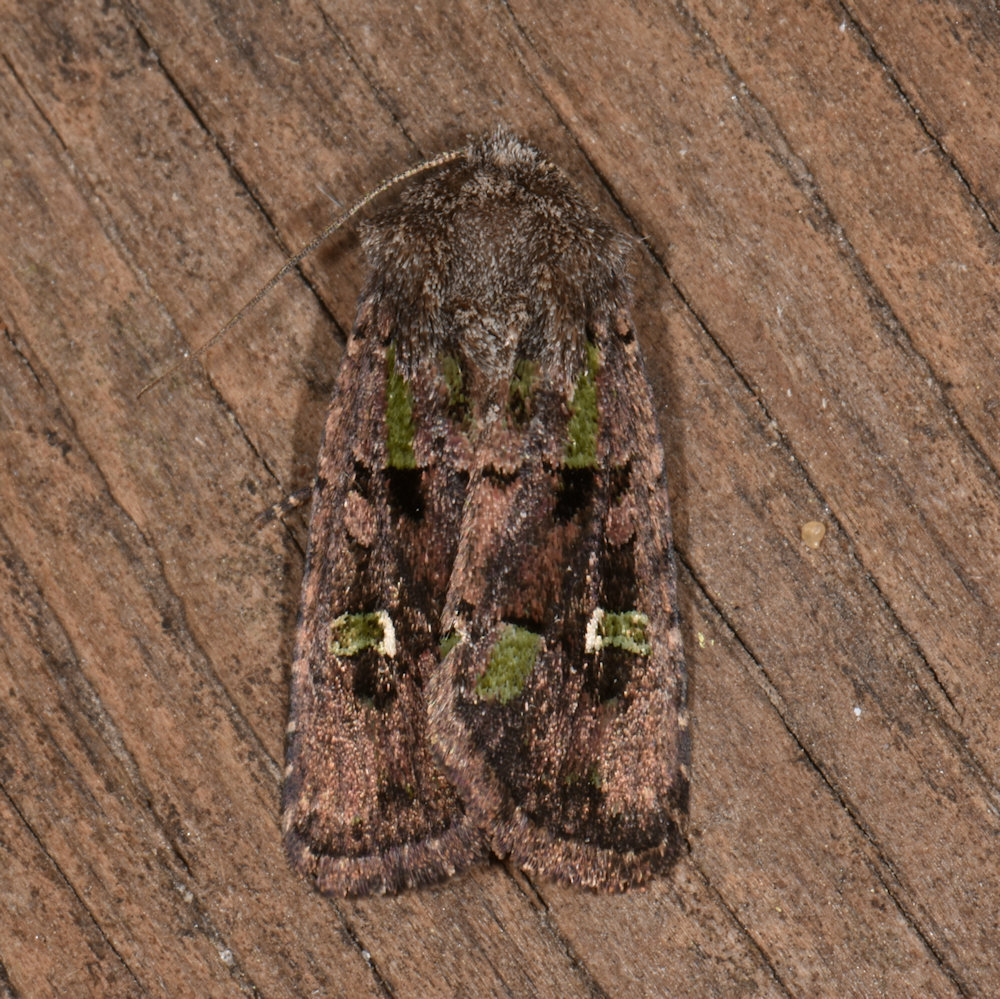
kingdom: Animalia
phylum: Arthropoda
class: Insecta
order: Lepidoptera
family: Noctuidae
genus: Lacinipolia
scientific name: Lacinipolia renigera
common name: Kidney-spotted minor
